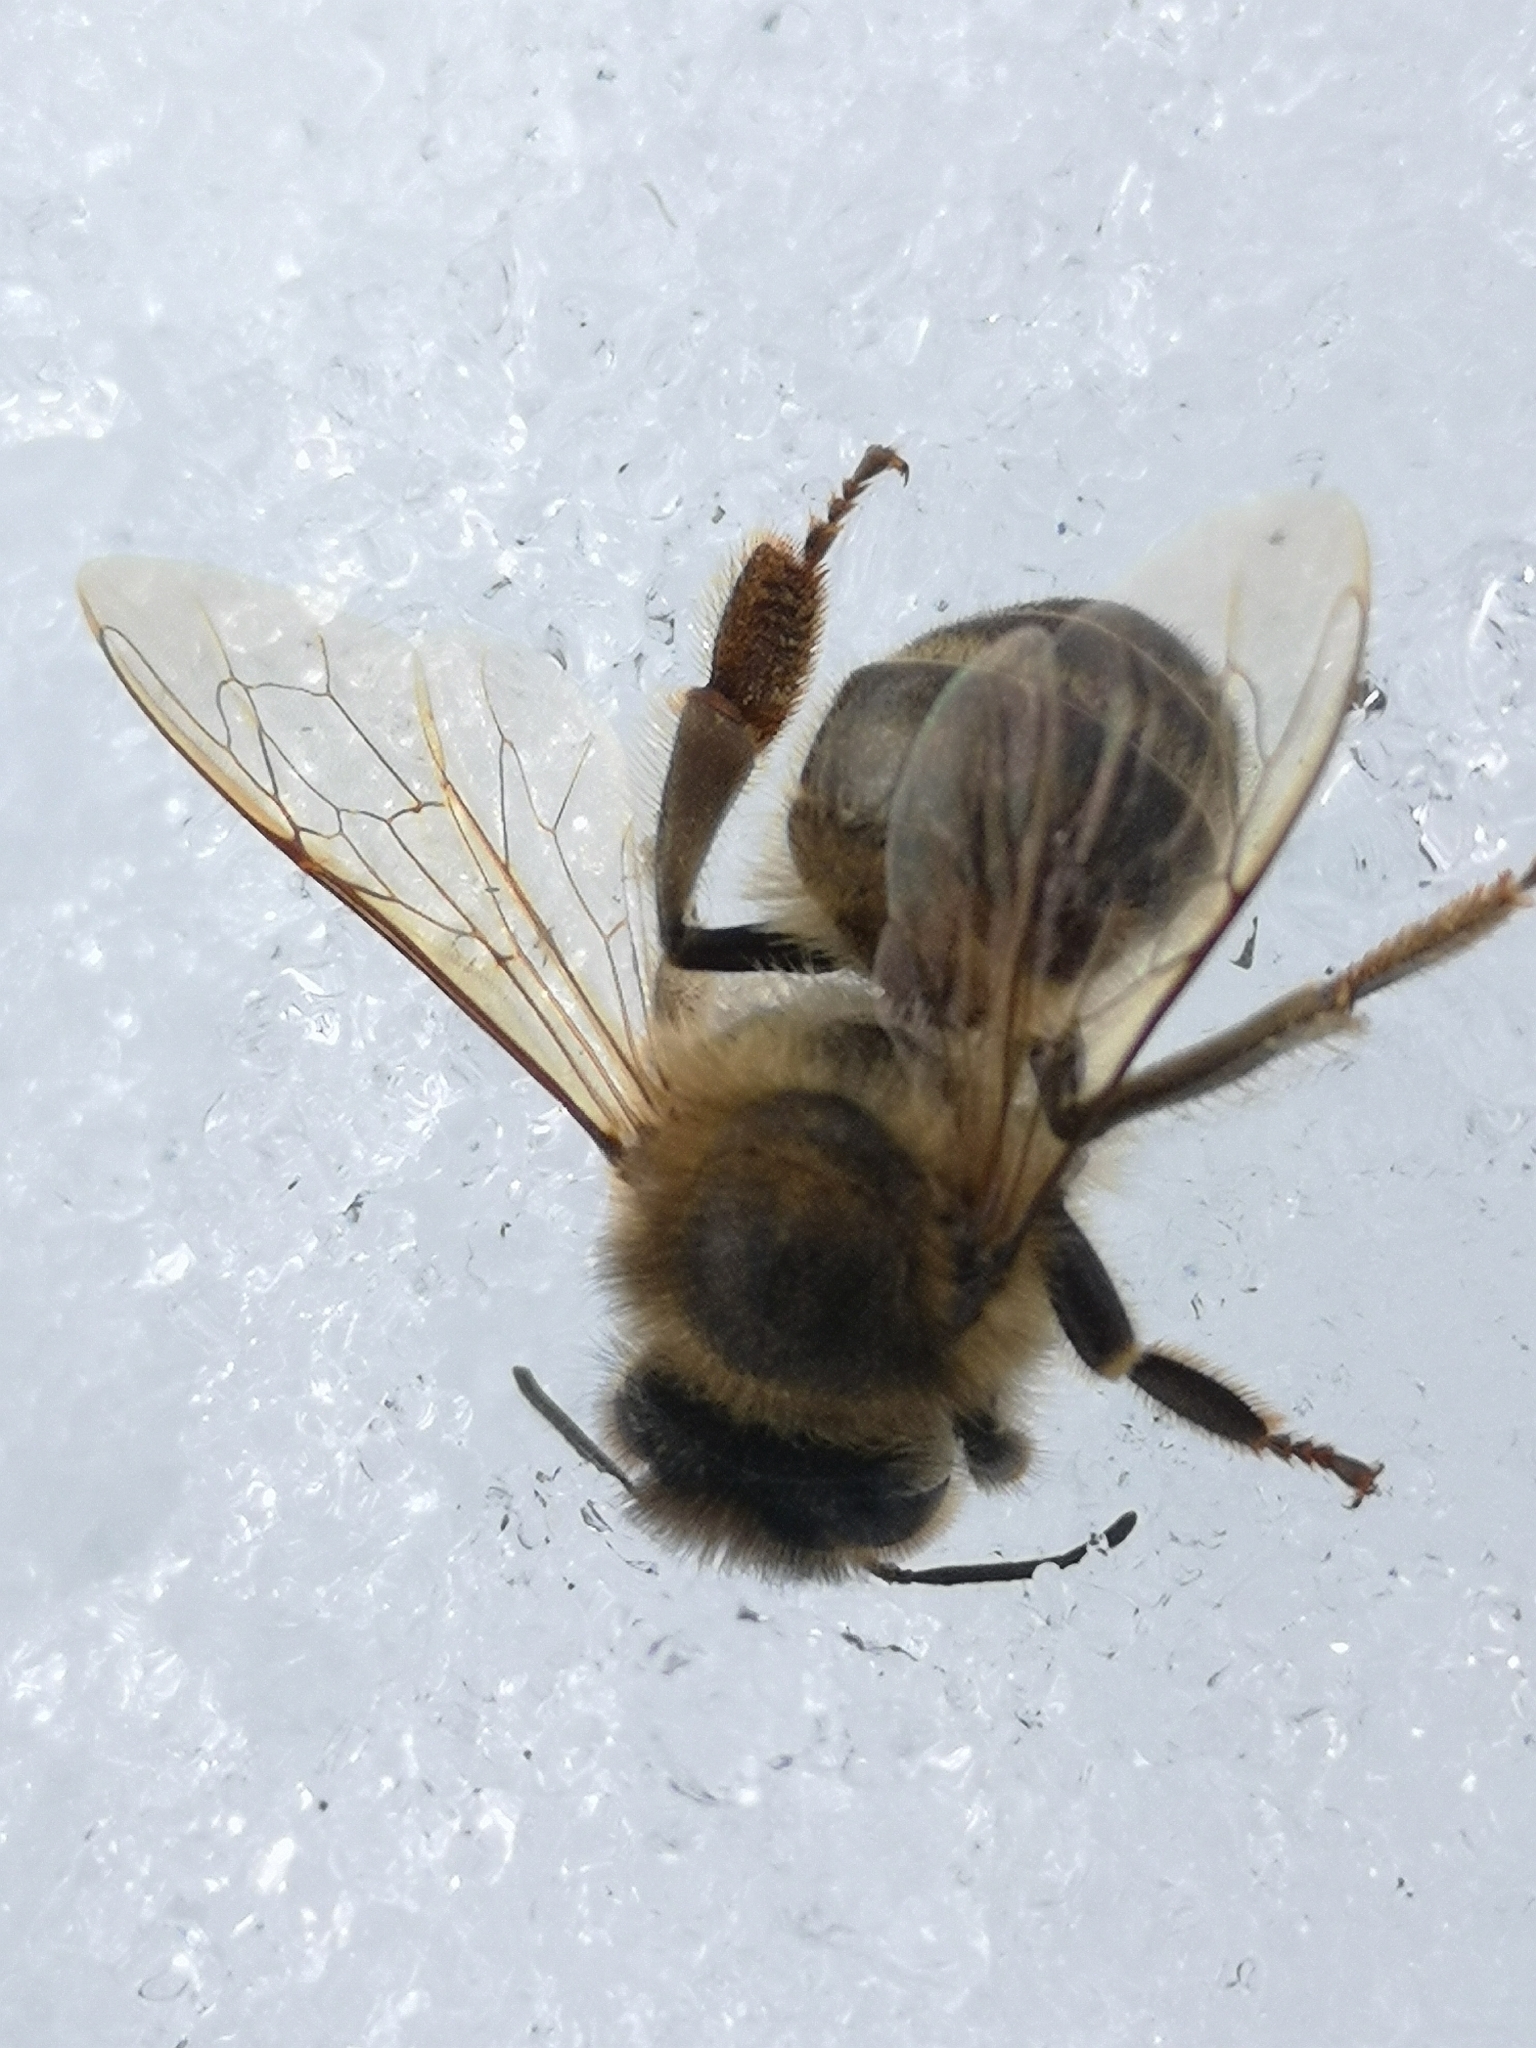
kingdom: Animalia
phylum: Arthropoda
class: Insecta
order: Hymenoptera
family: Apidae
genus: Apis
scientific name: Apis mellifera
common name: Honey bee
